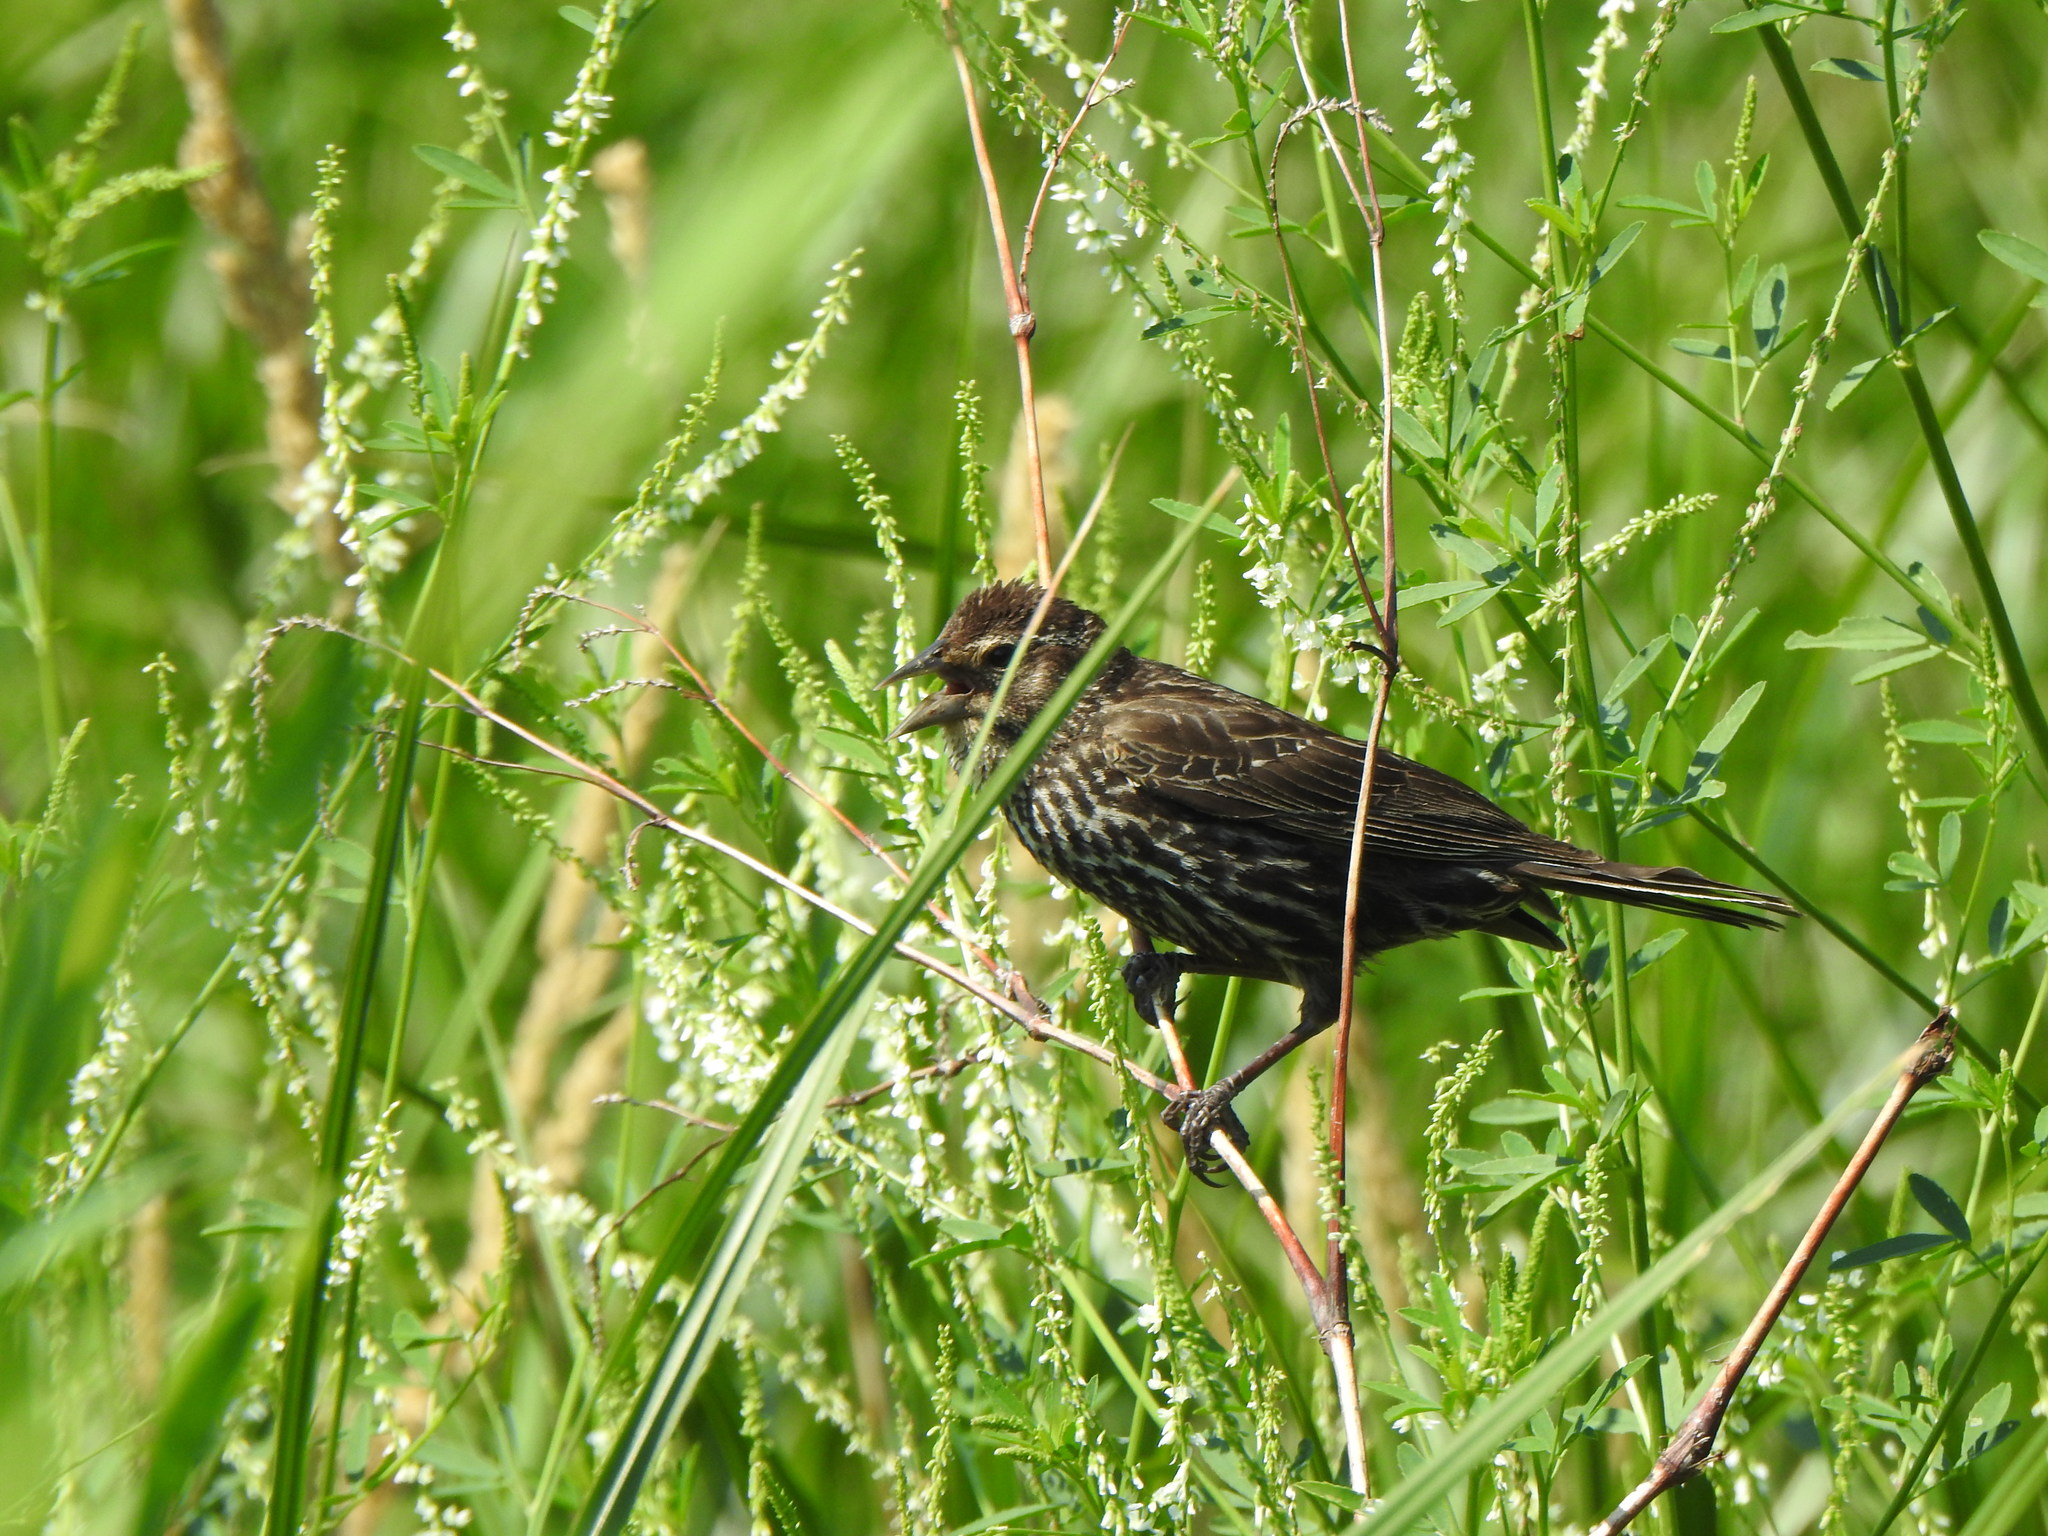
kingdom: Animalia
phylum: Chordata
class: Aves
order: Passeriformes
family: Icteridae
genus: Agelaius
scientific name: Agelaius phoeniceus
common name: Red-winged blackbird
